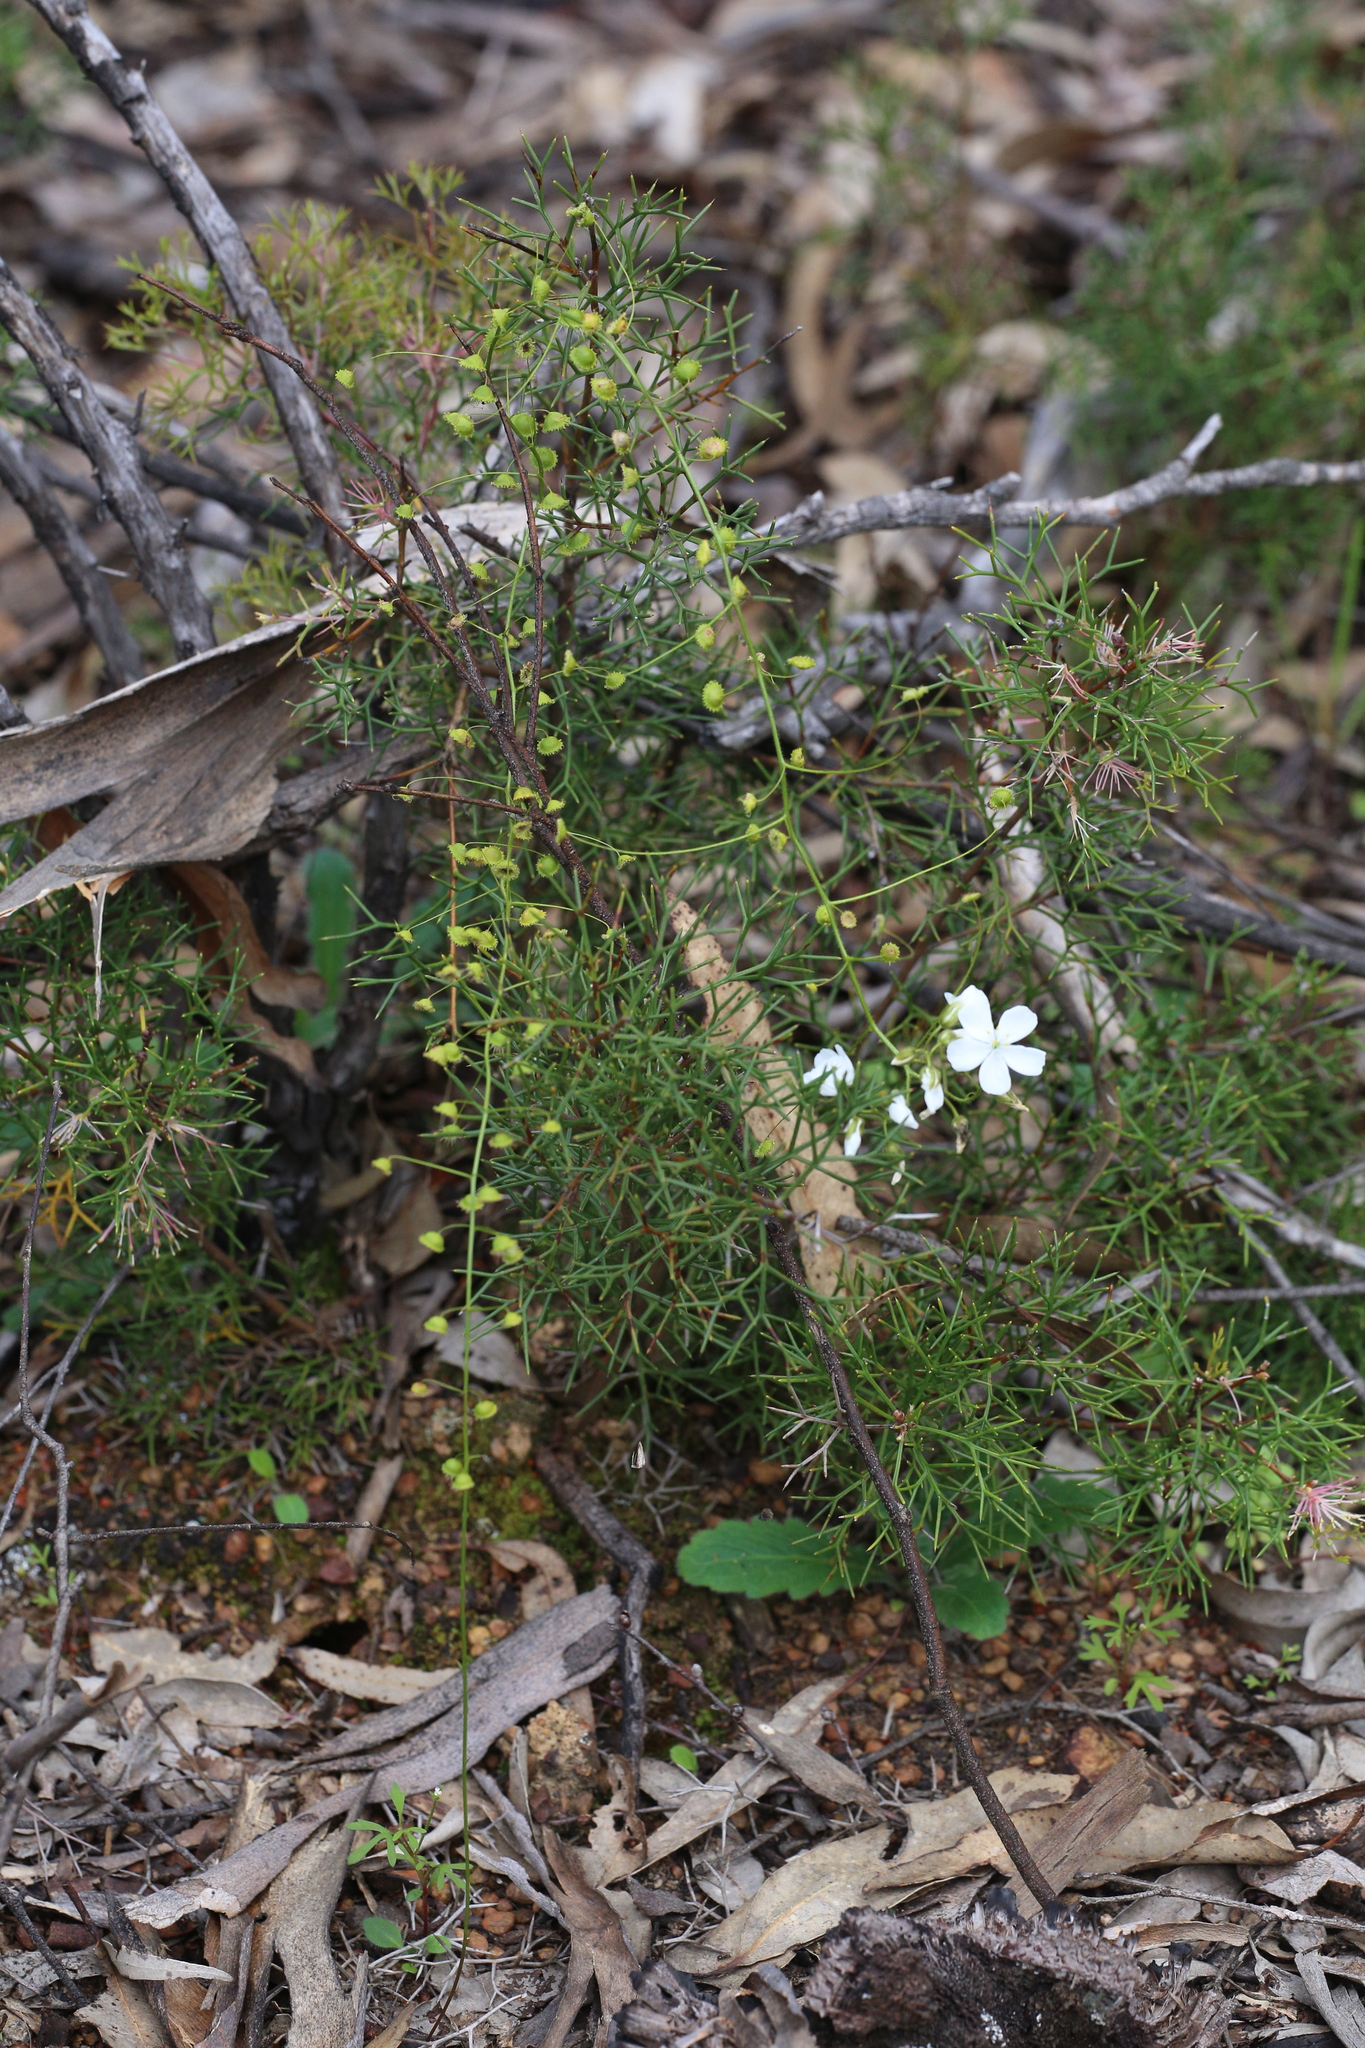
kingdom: Plantae
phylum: Tracheophyta
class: Magnoliopsida
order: Caryophyllales
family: Droseraceae
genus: Drosera
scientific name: Drosera macrantha
